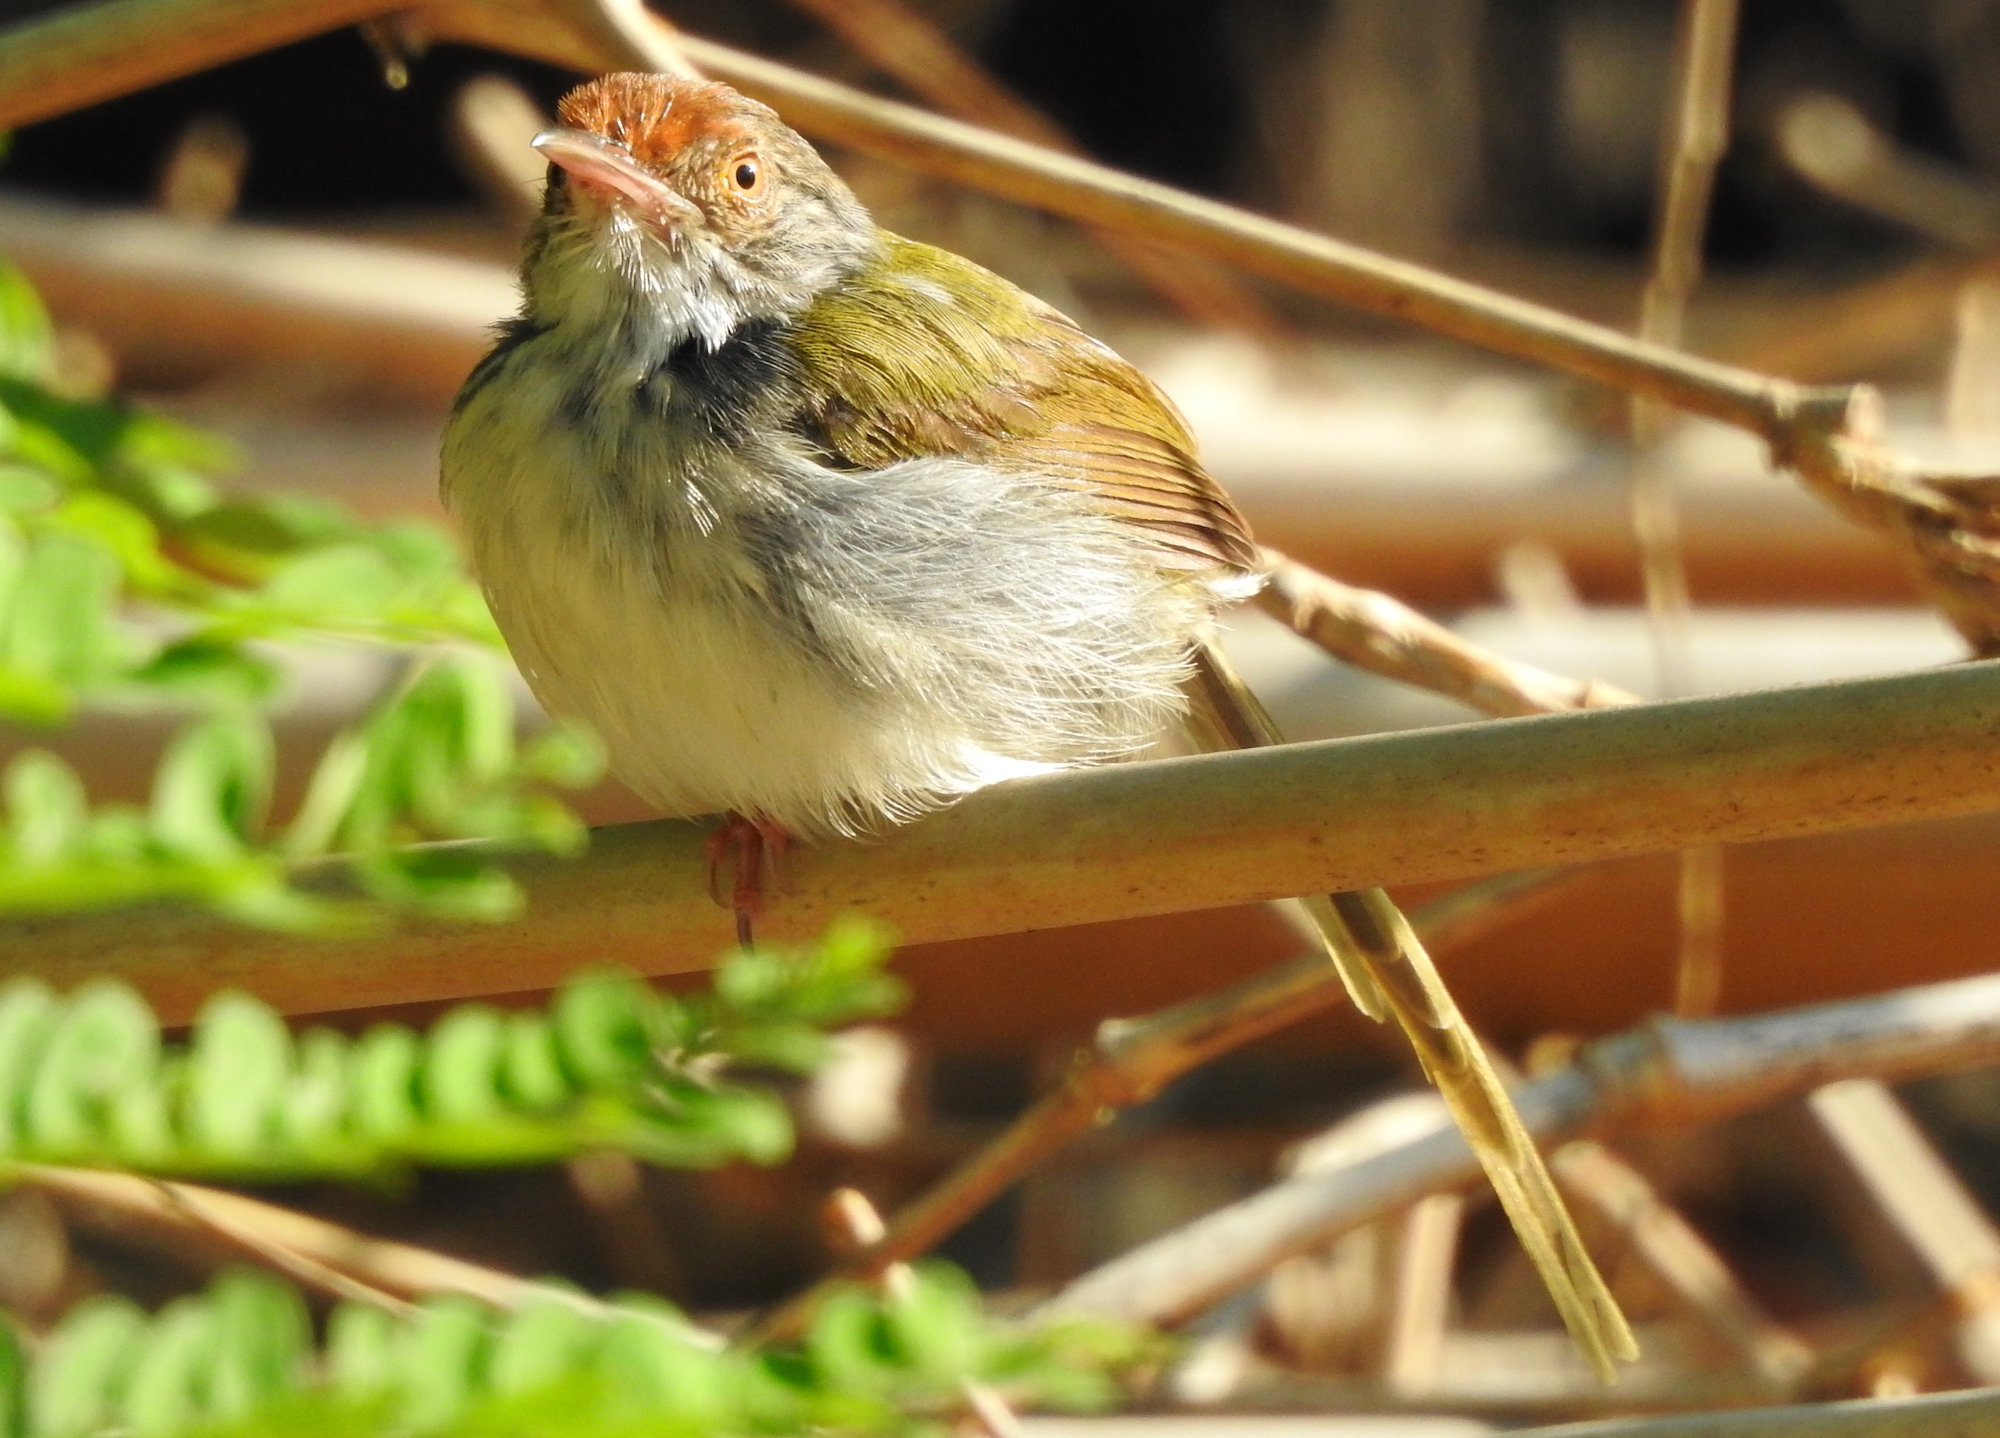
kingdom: Animalia
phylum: Chordata
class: Aves
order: Passeriformes
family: Cisticolidae
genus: Orthotomus
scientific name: Orthotomus sutorius
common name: Common tailorbird
